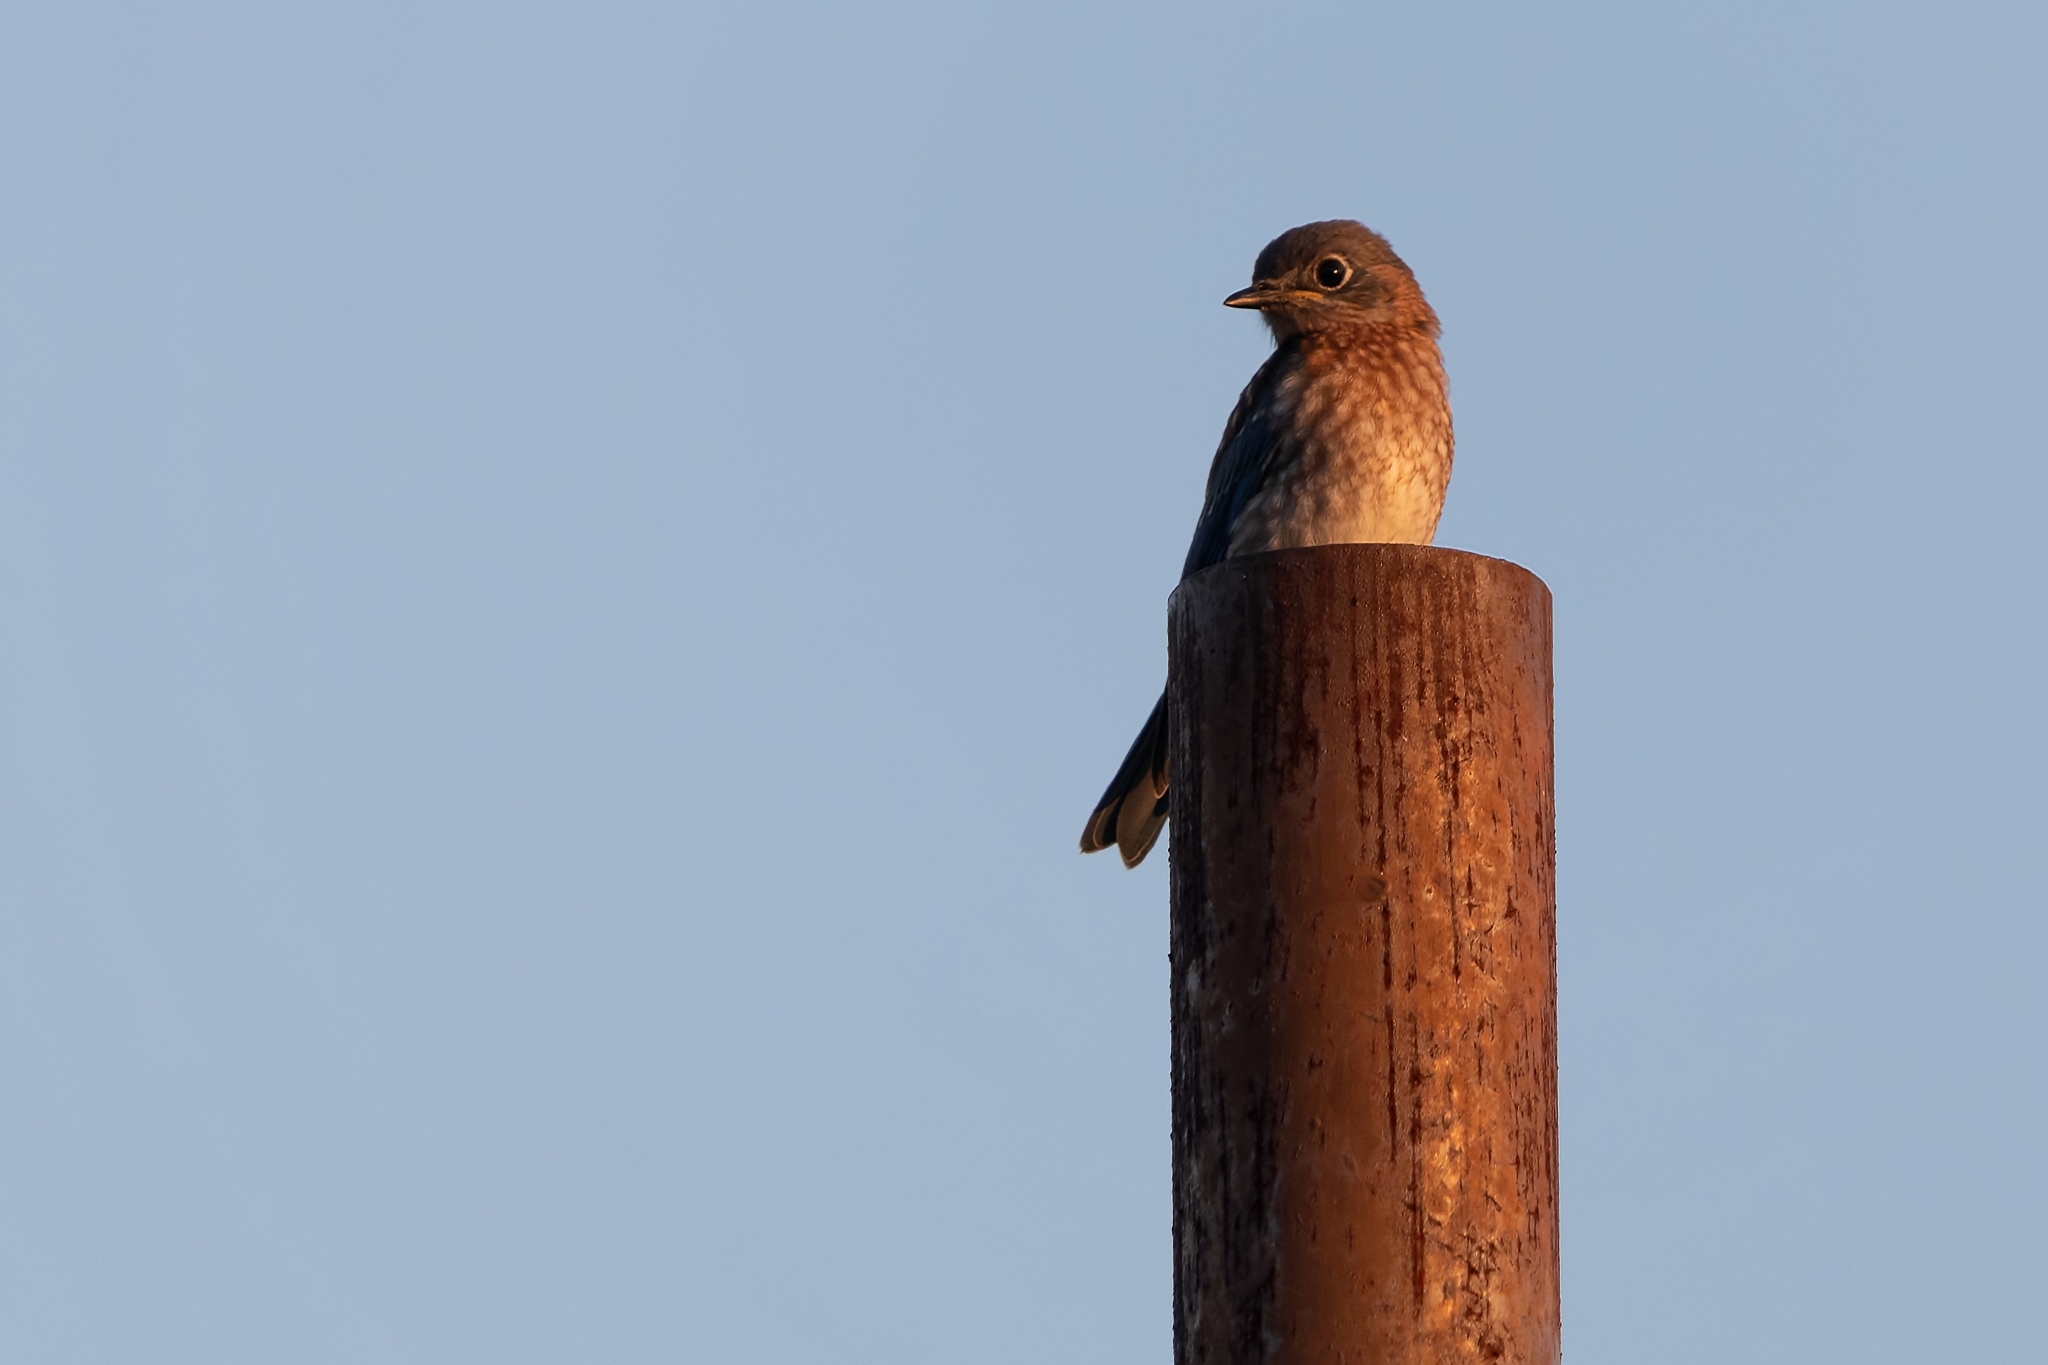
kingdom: Animalia
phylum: Chordata
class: Aves
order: Passeriformes
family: Turdidae
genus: Sialia
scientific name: Sialia sialis
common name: Eastern bluebird
